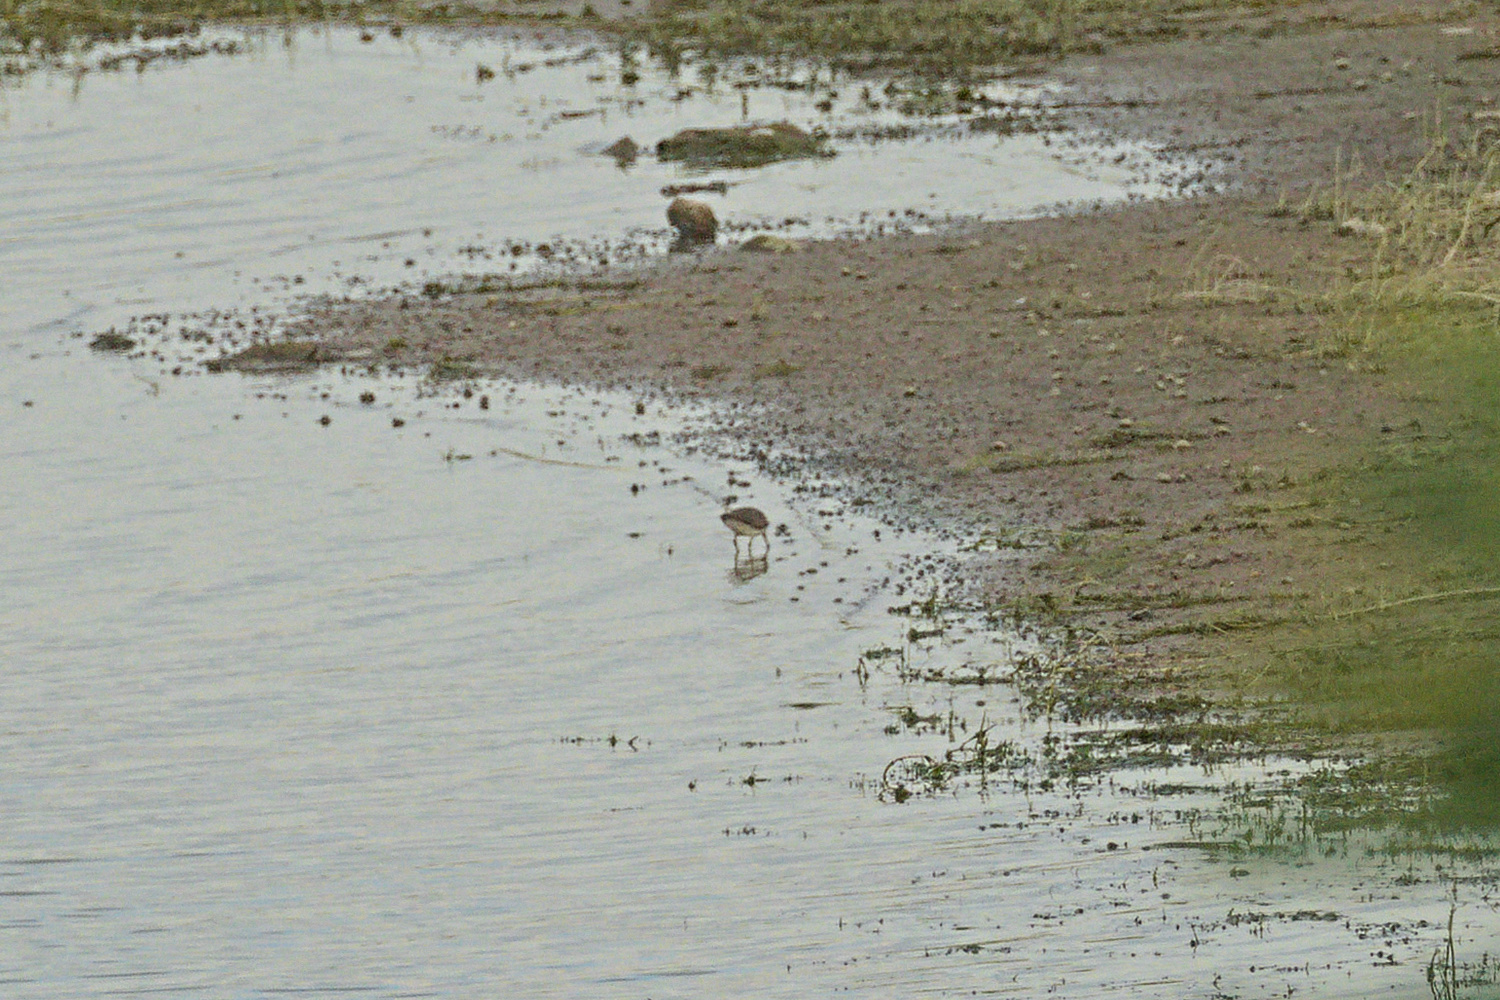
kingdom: Animalia
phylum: Chordata
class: Aves
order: Charadriiformes
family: Scolopacidae
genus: Actitis
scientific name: Actitis hypoleucos
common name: Common sandpiper
